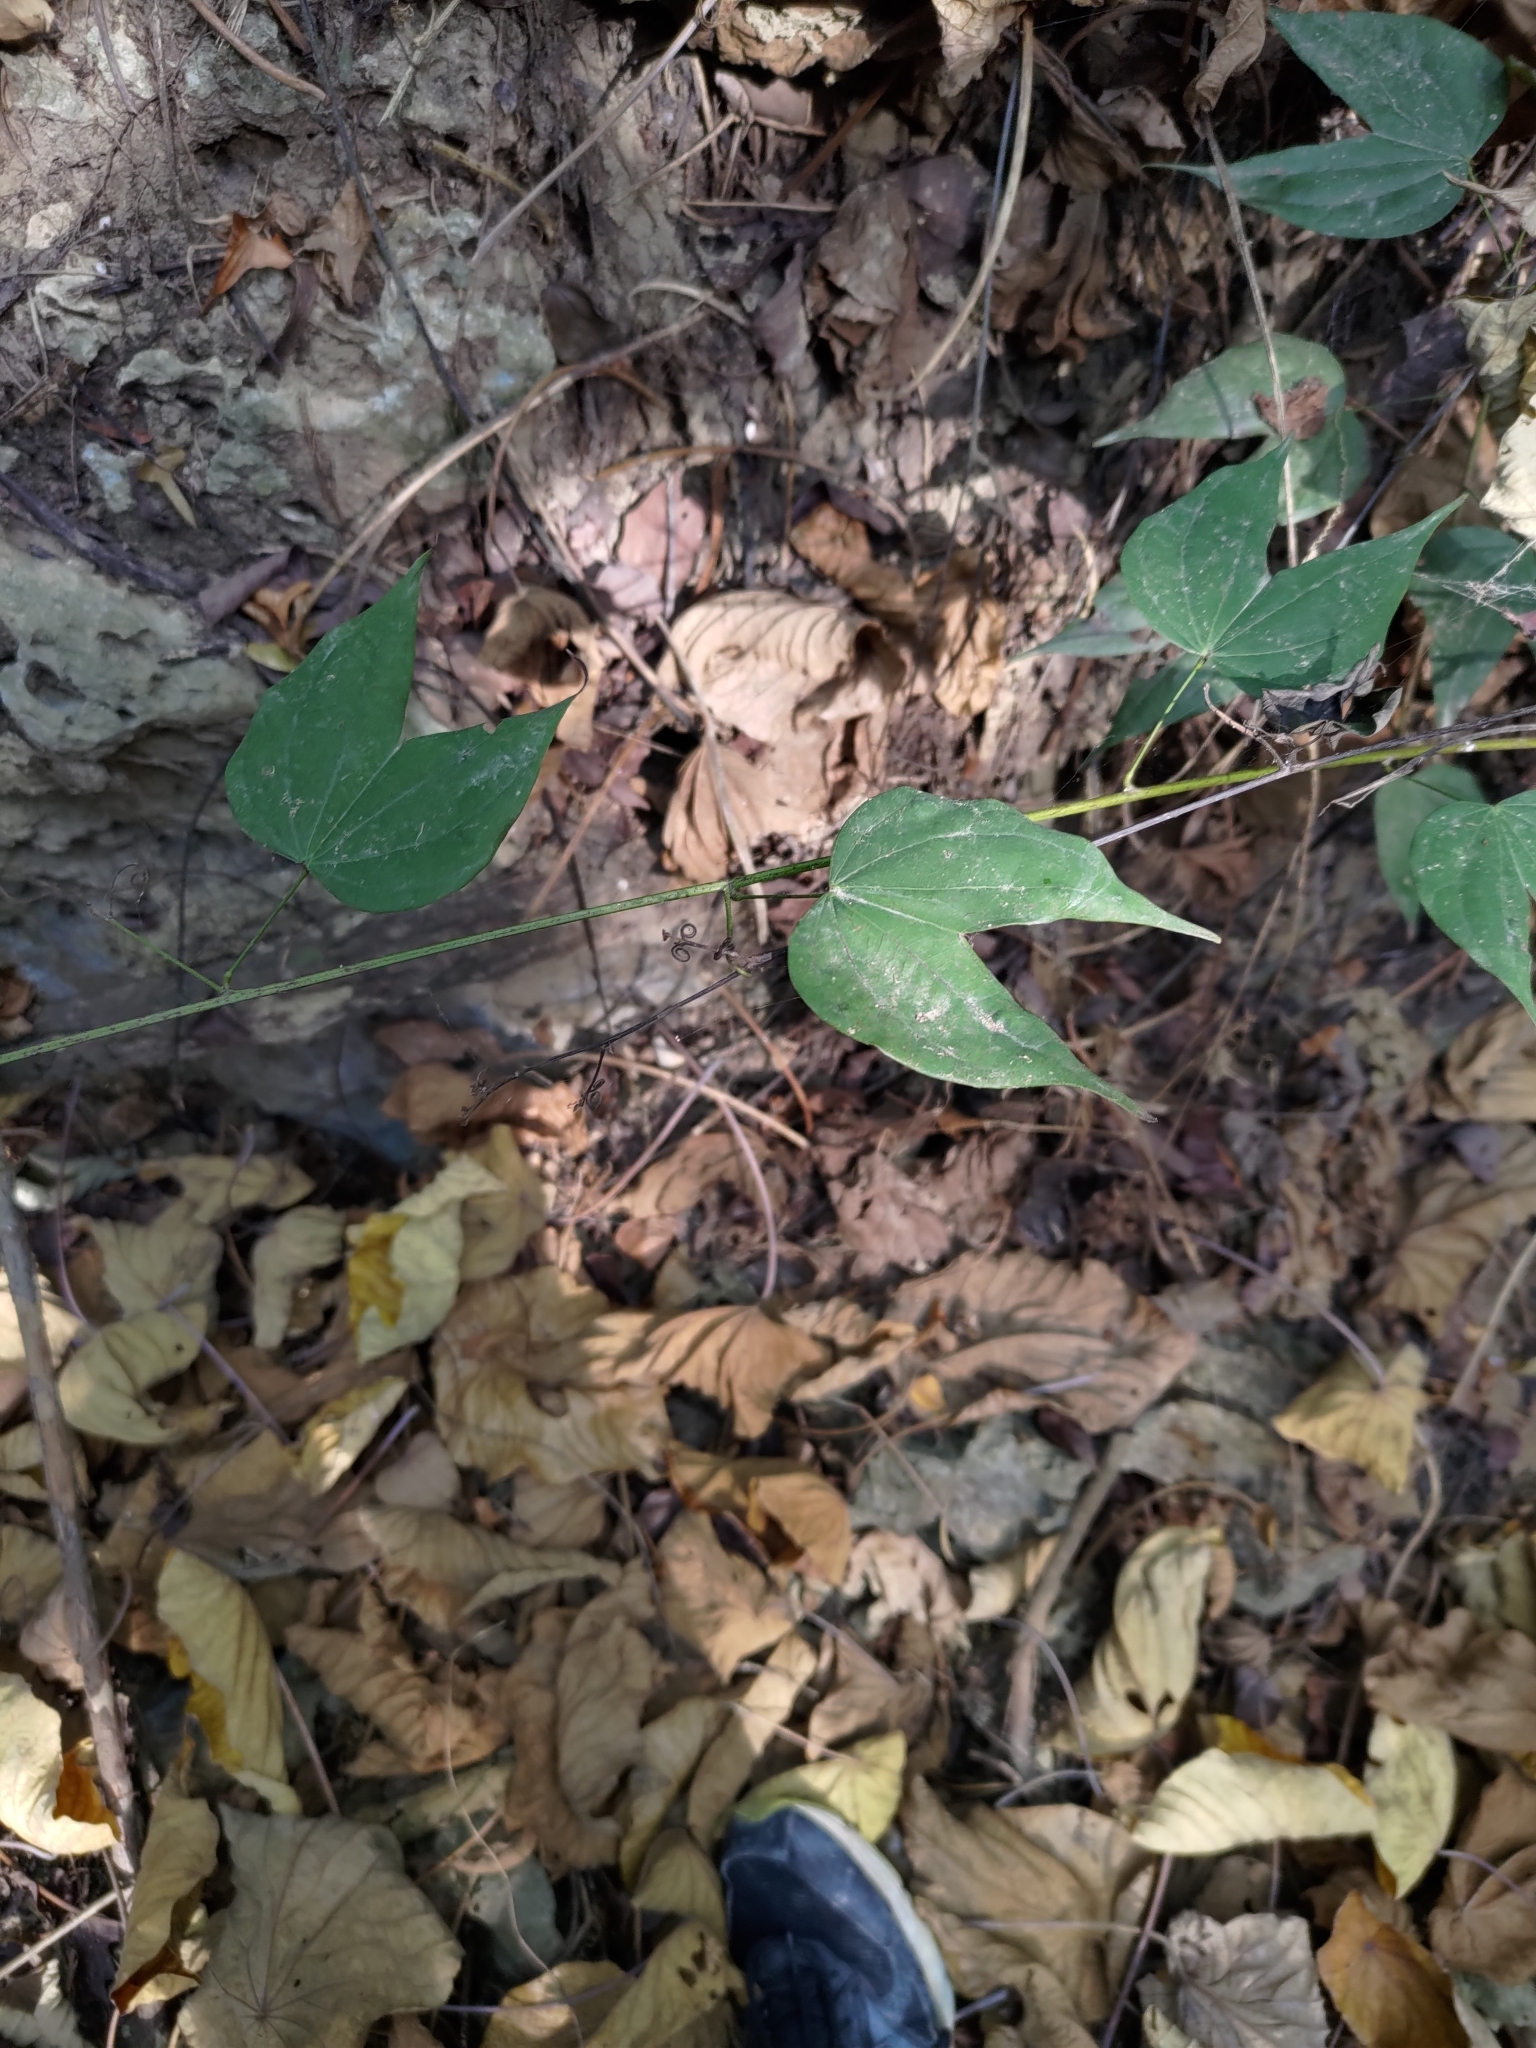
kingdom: Plantae
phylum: Tracheophyta
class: Magnoliopsida
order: Fabales
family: Fabaceae
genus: Phanera
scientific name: Phanera championii
